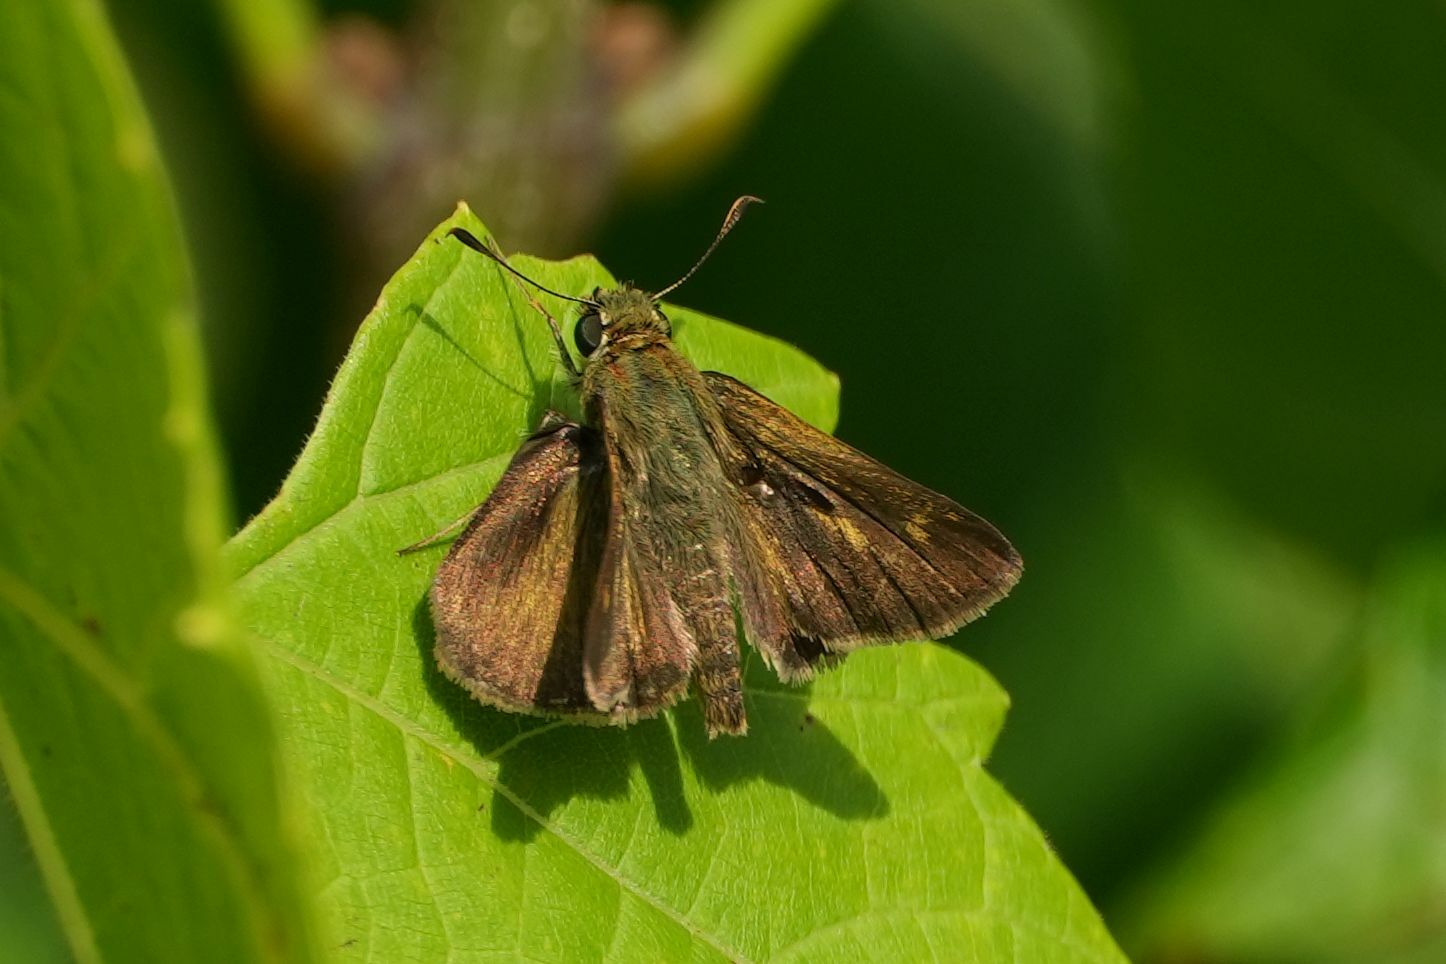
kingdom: Animalia
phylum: Arthropoda
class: Insecta
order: Lepidoptera
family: Hesperiidae
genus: Polites
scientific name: Polites egeremet
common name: Northern broken-dash
